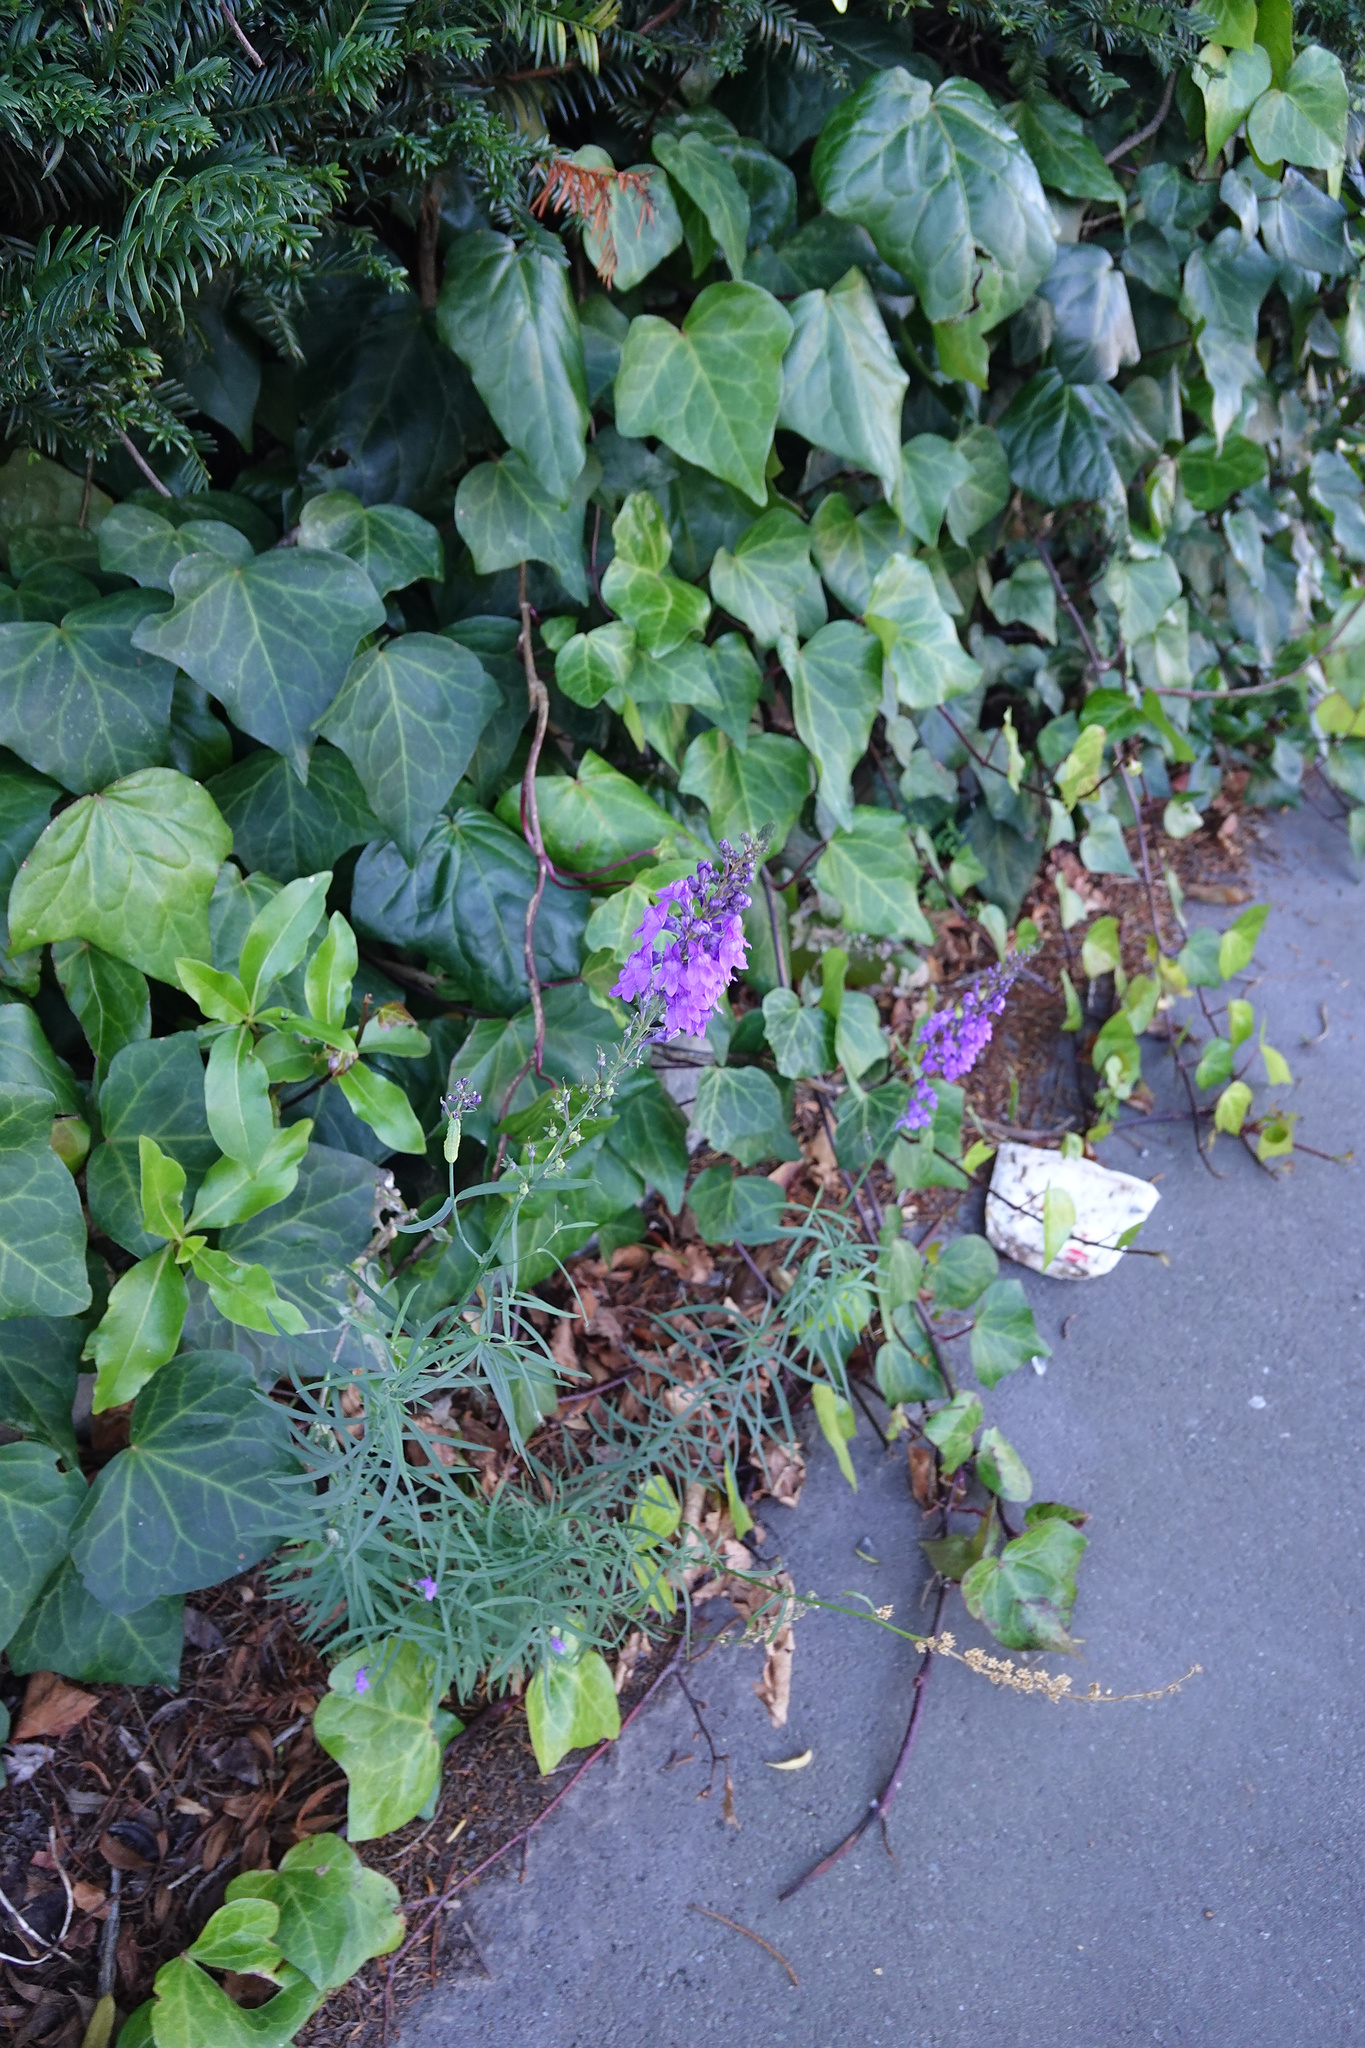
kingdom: Plantae
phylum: Tracheophyta
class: Magnoliopsida
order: Lamiales
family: Plantaginaceae
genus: Linaria
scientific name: Linaria purpurea
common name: Purple toadflax
